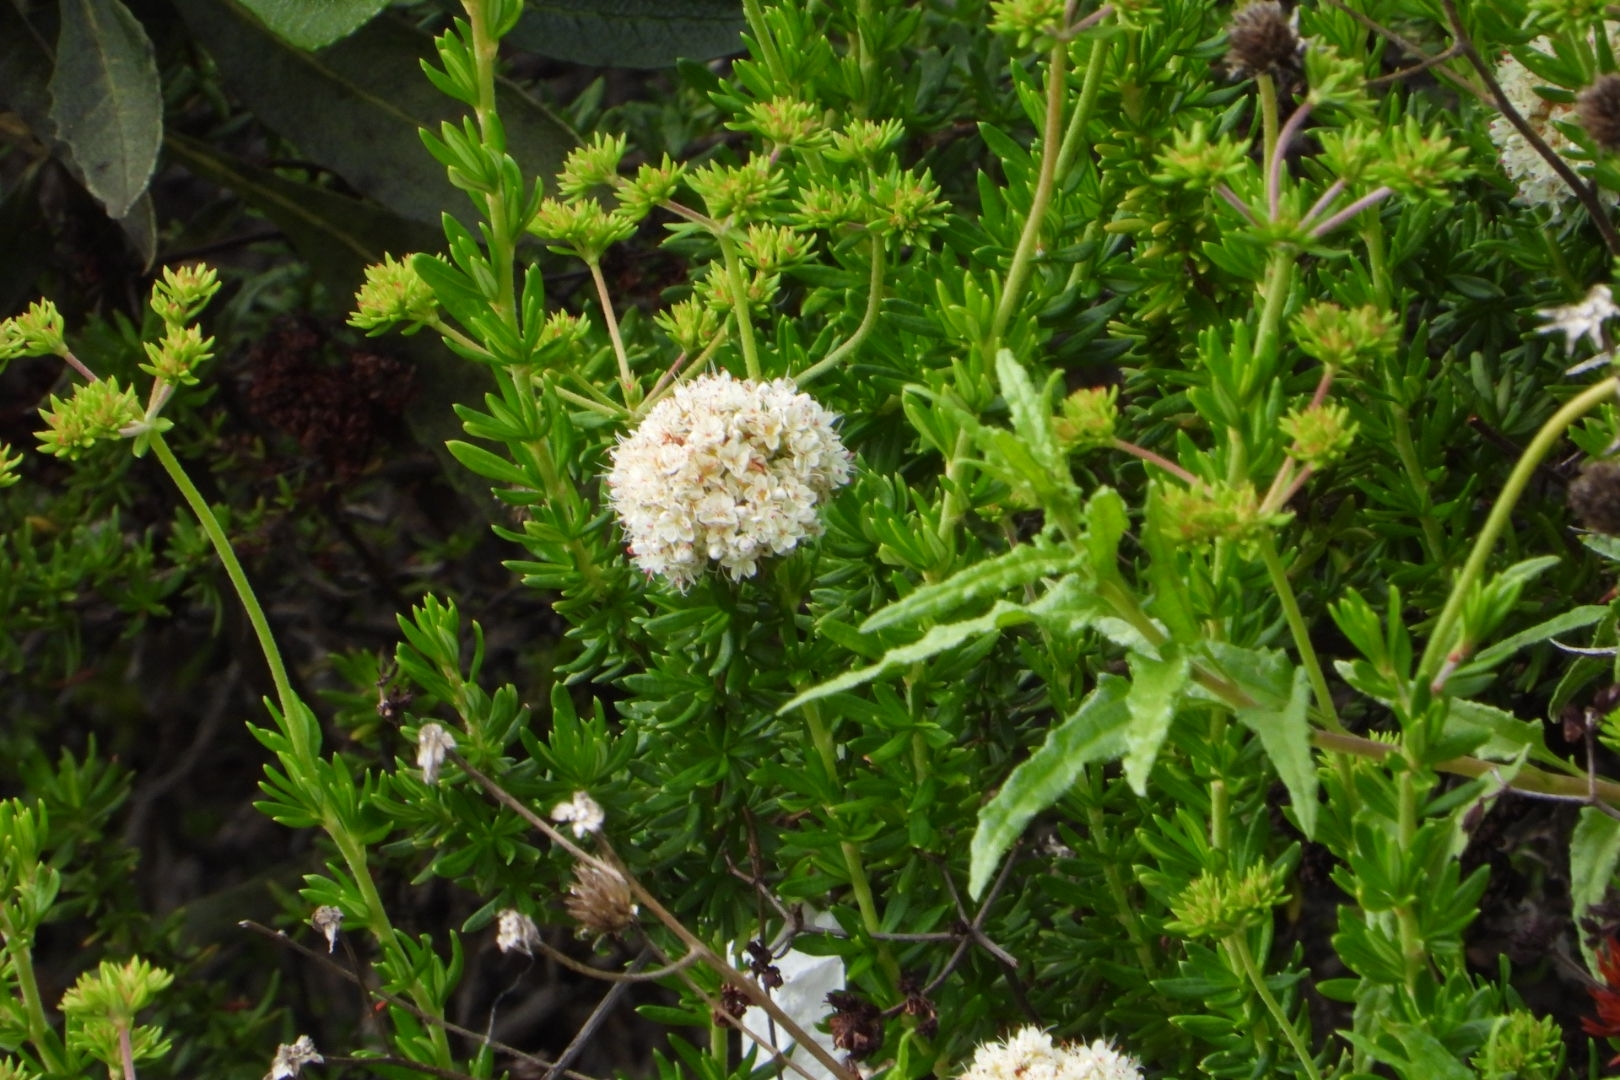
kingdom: Plantae
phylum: Tracheophyta
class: Magnoliopsida
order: Caryophyllales
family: Polygonaceae
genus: Eriogonum
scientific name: Eriogonum fasciculatum
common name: California wild buckwheat
